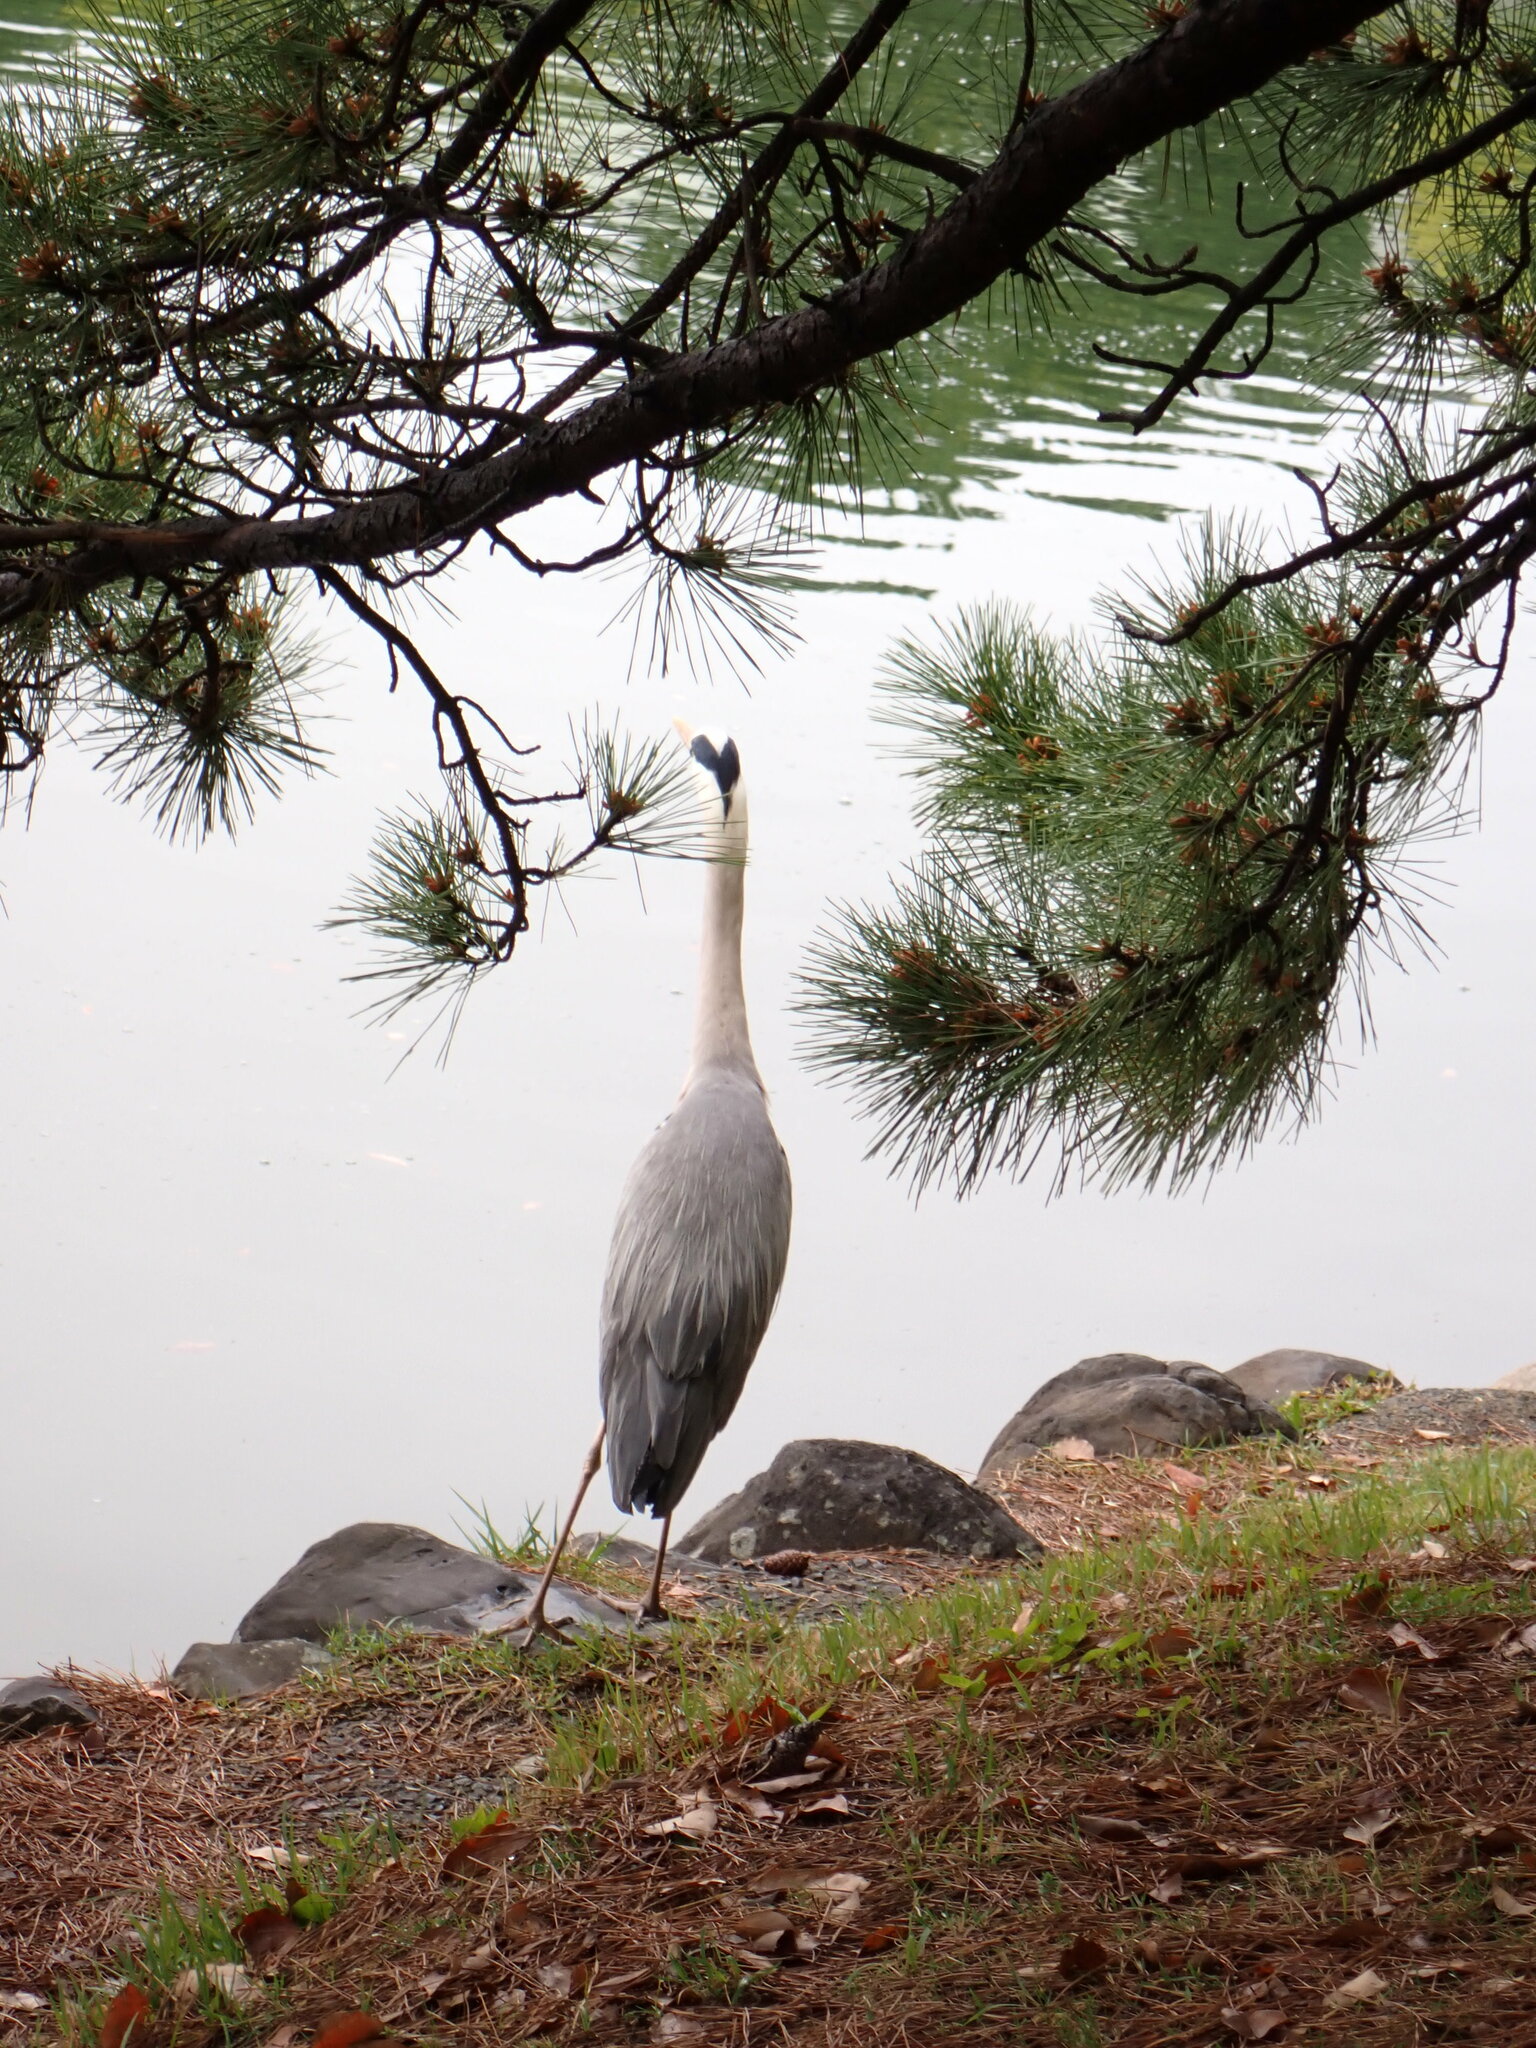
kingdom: Animalia
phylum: Chordata
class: Aves
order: Pelecaniformes
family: Ardeidae
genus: Ardea
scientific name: Ardea cinerea
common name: Grey heron
